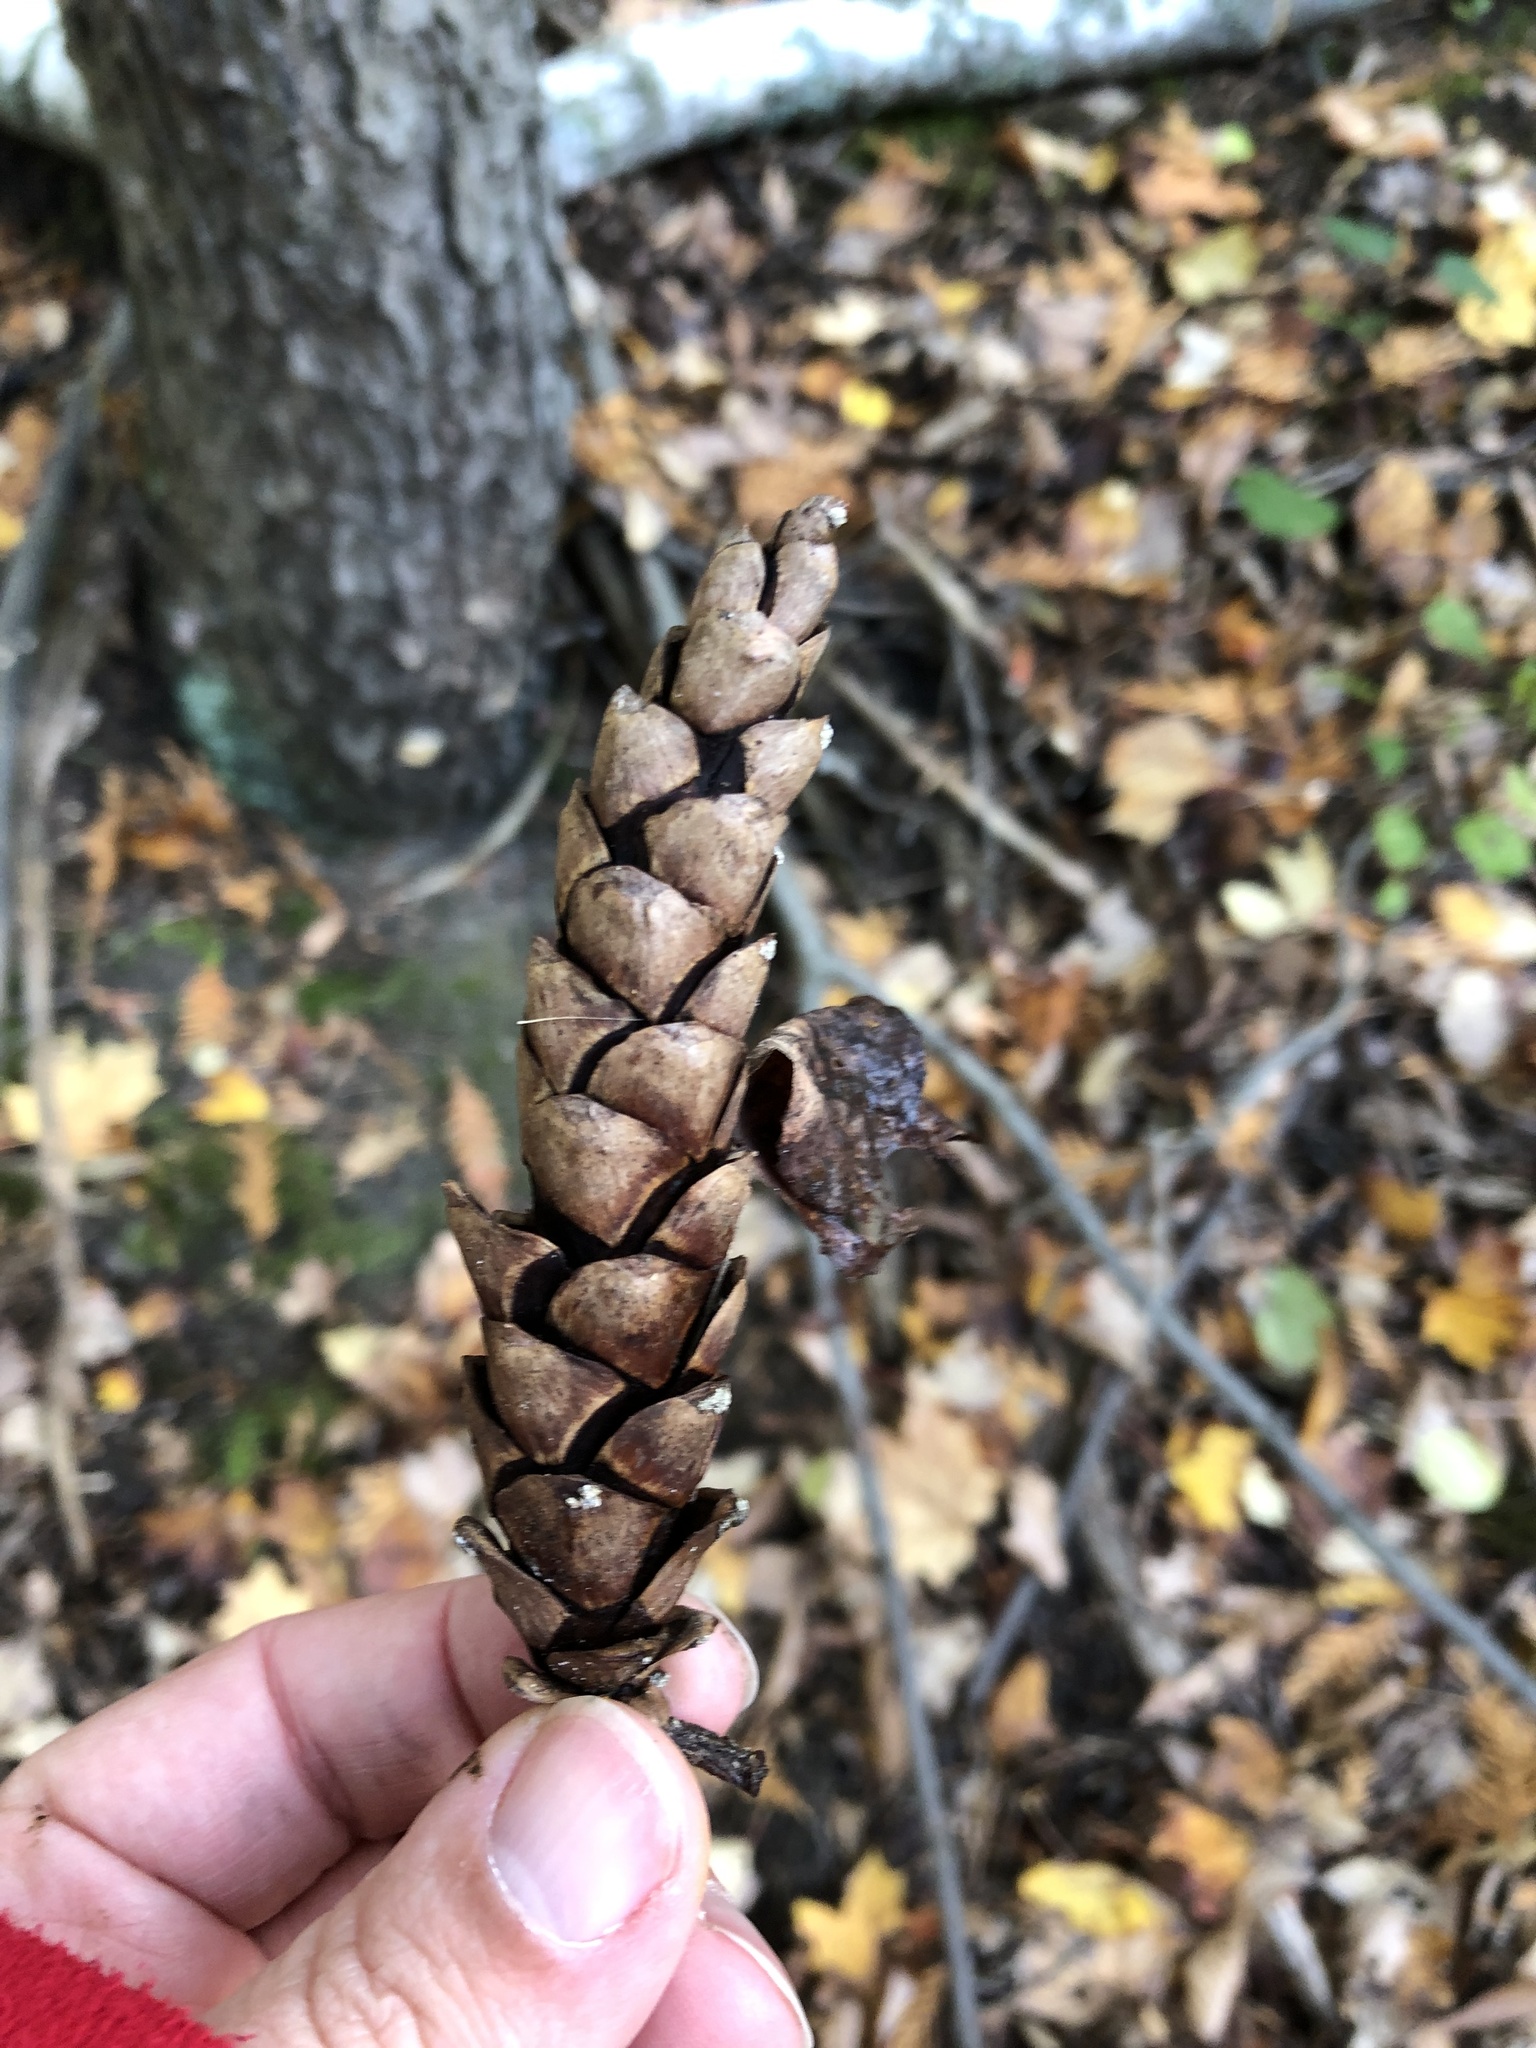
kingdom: Plantae
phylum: Tracheophyta
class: Pinopsida
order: Pinales
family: Pinaceae
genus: Pinus
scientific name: Pinus strobus
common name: Weymouth pine
